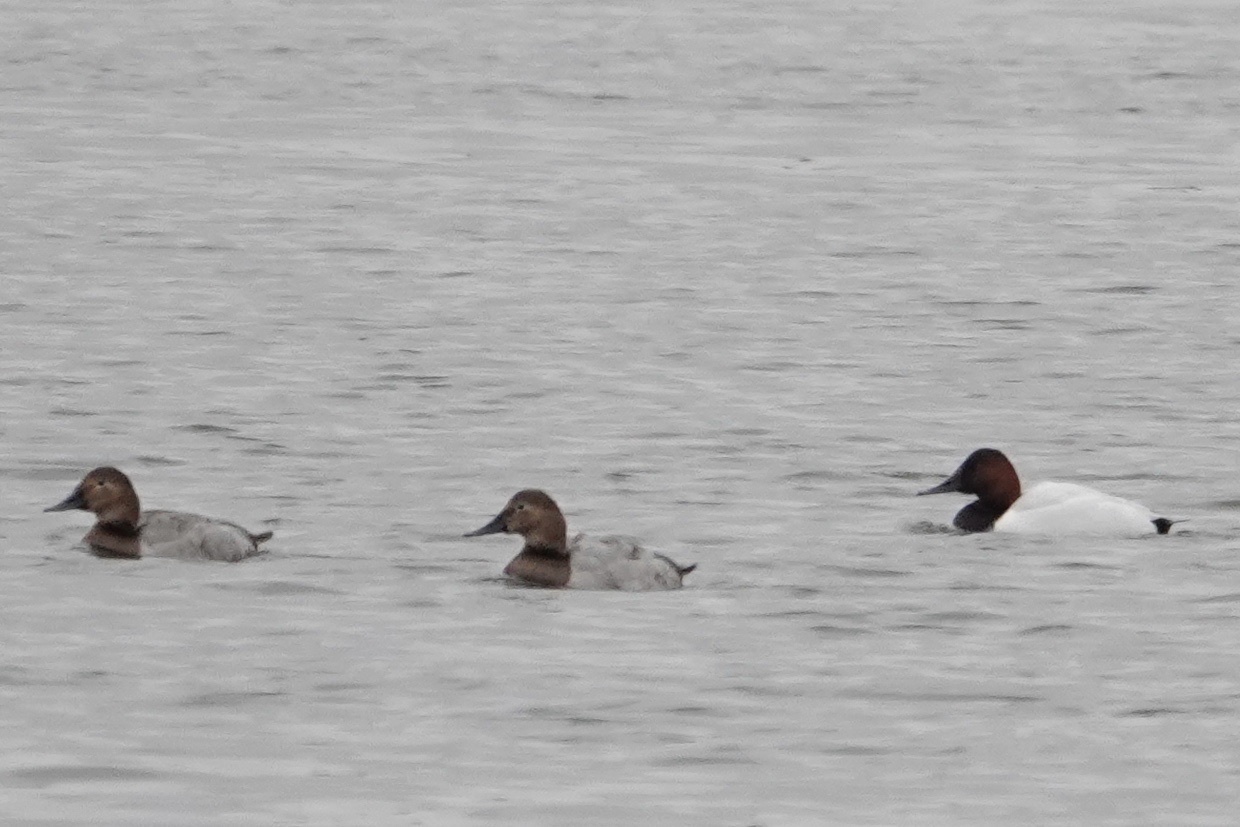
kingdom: Animalia
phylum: Chordata
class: Aves
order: Anseriformes
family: Anatidae
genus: Aythya
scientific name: Aythya valisineria
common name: Canvasback
